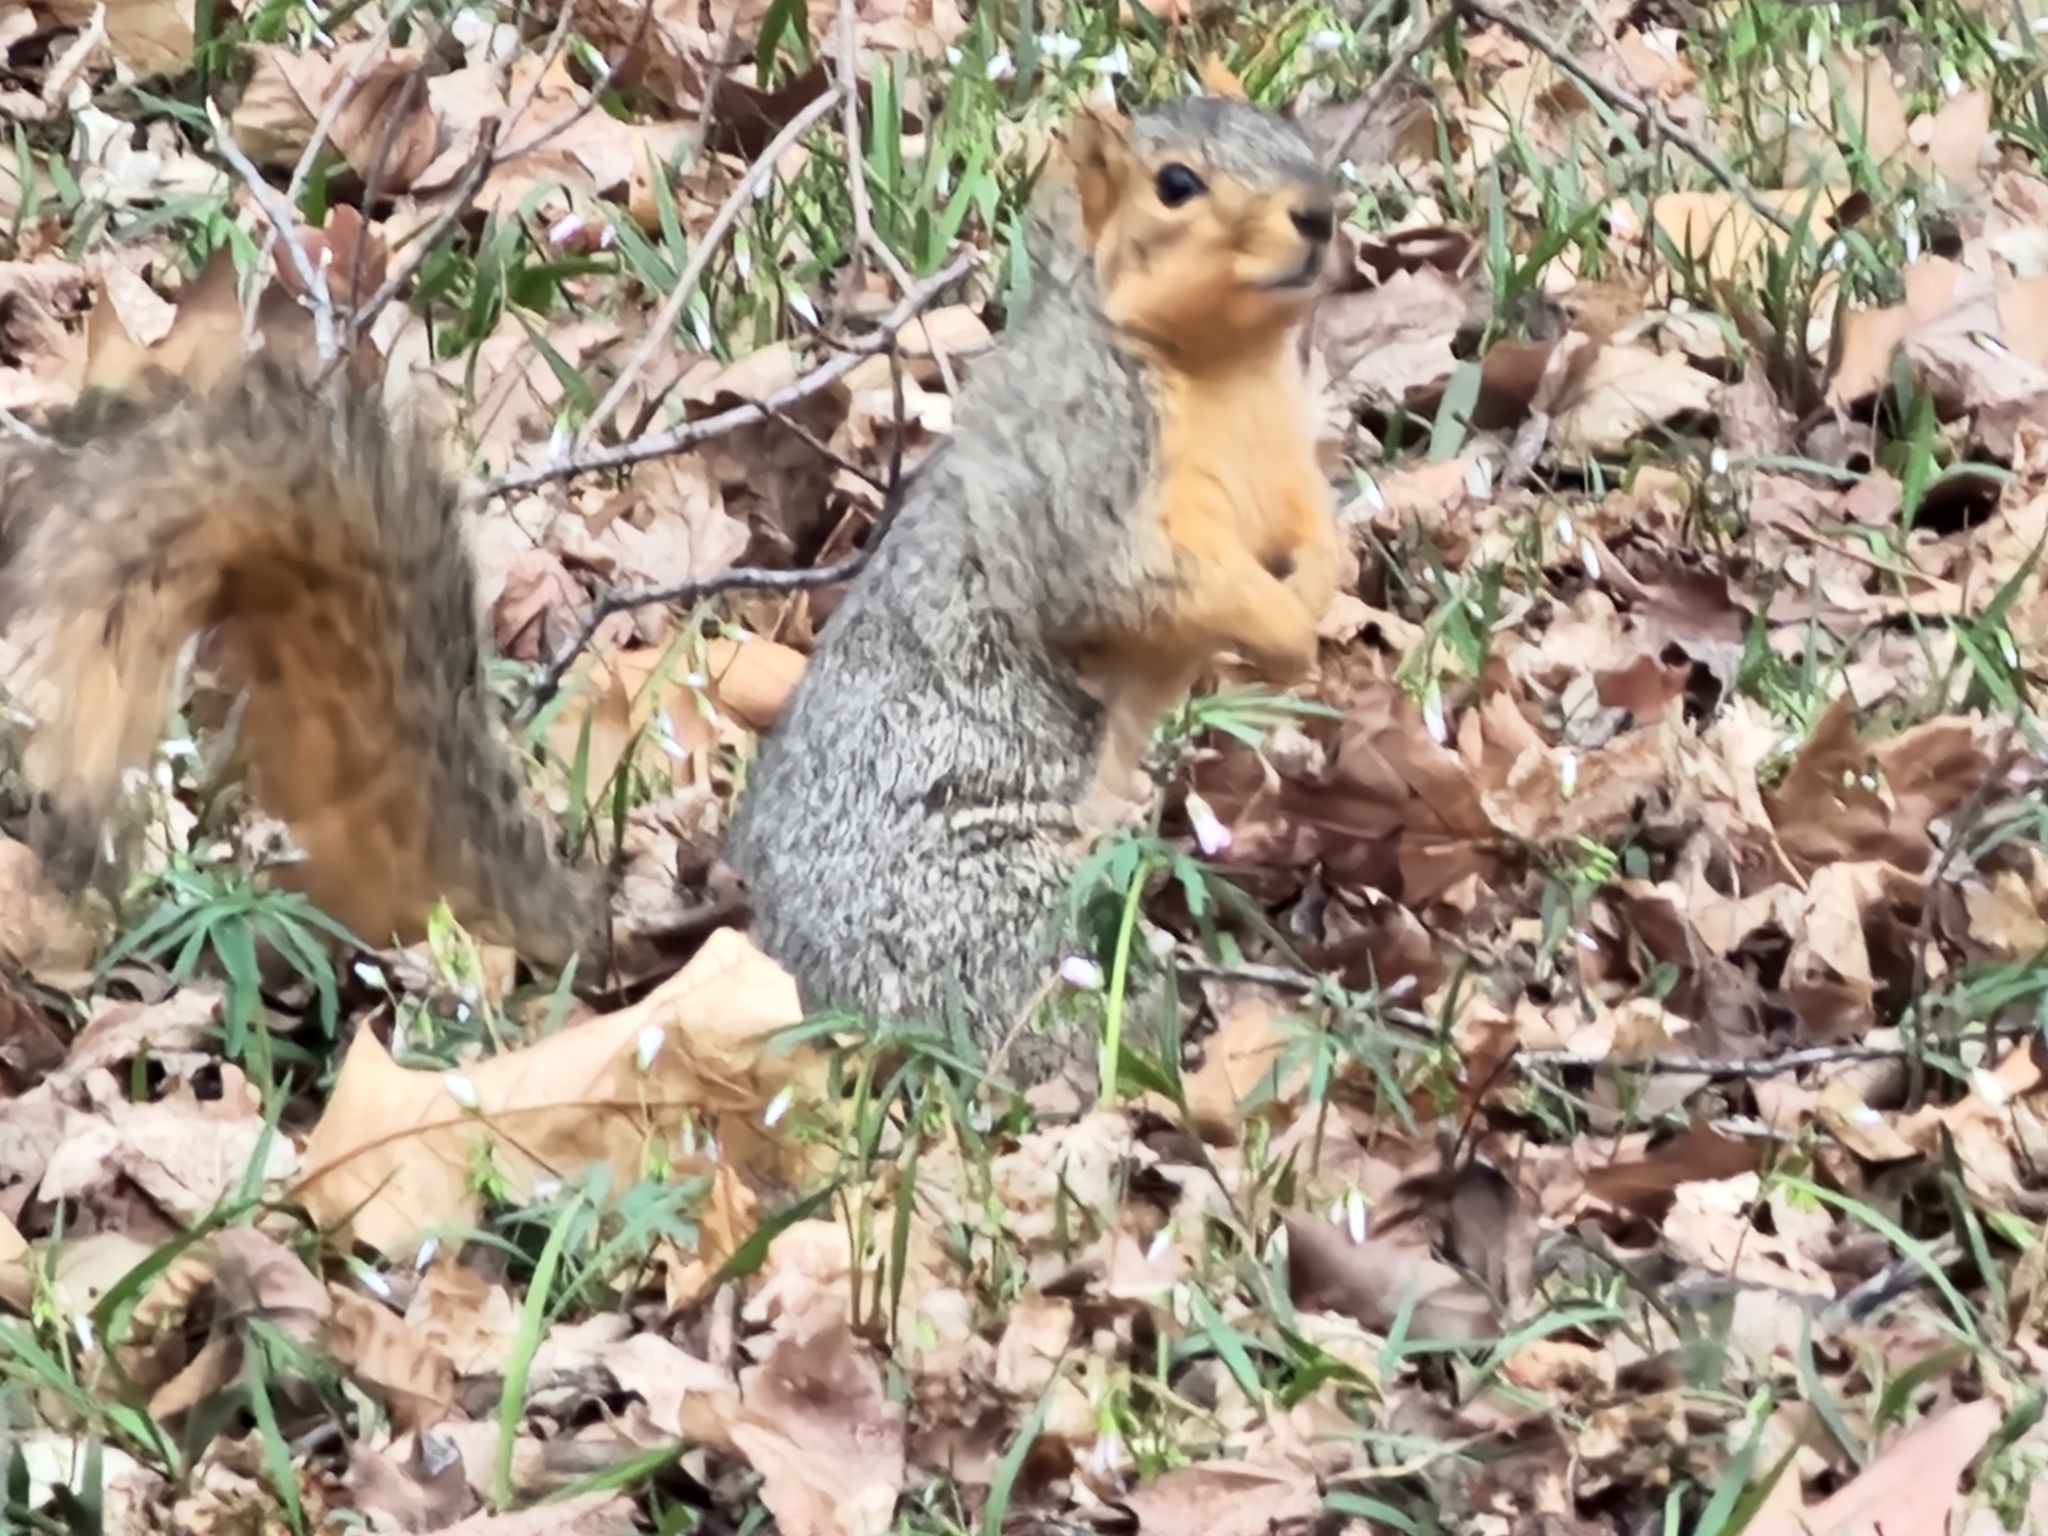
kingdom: Animalia
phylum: Chordata
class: Mammalia
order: Rodentia
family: Sciuridae
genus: Sciurus
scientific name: Sciurus niger
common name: Fox squirrel
